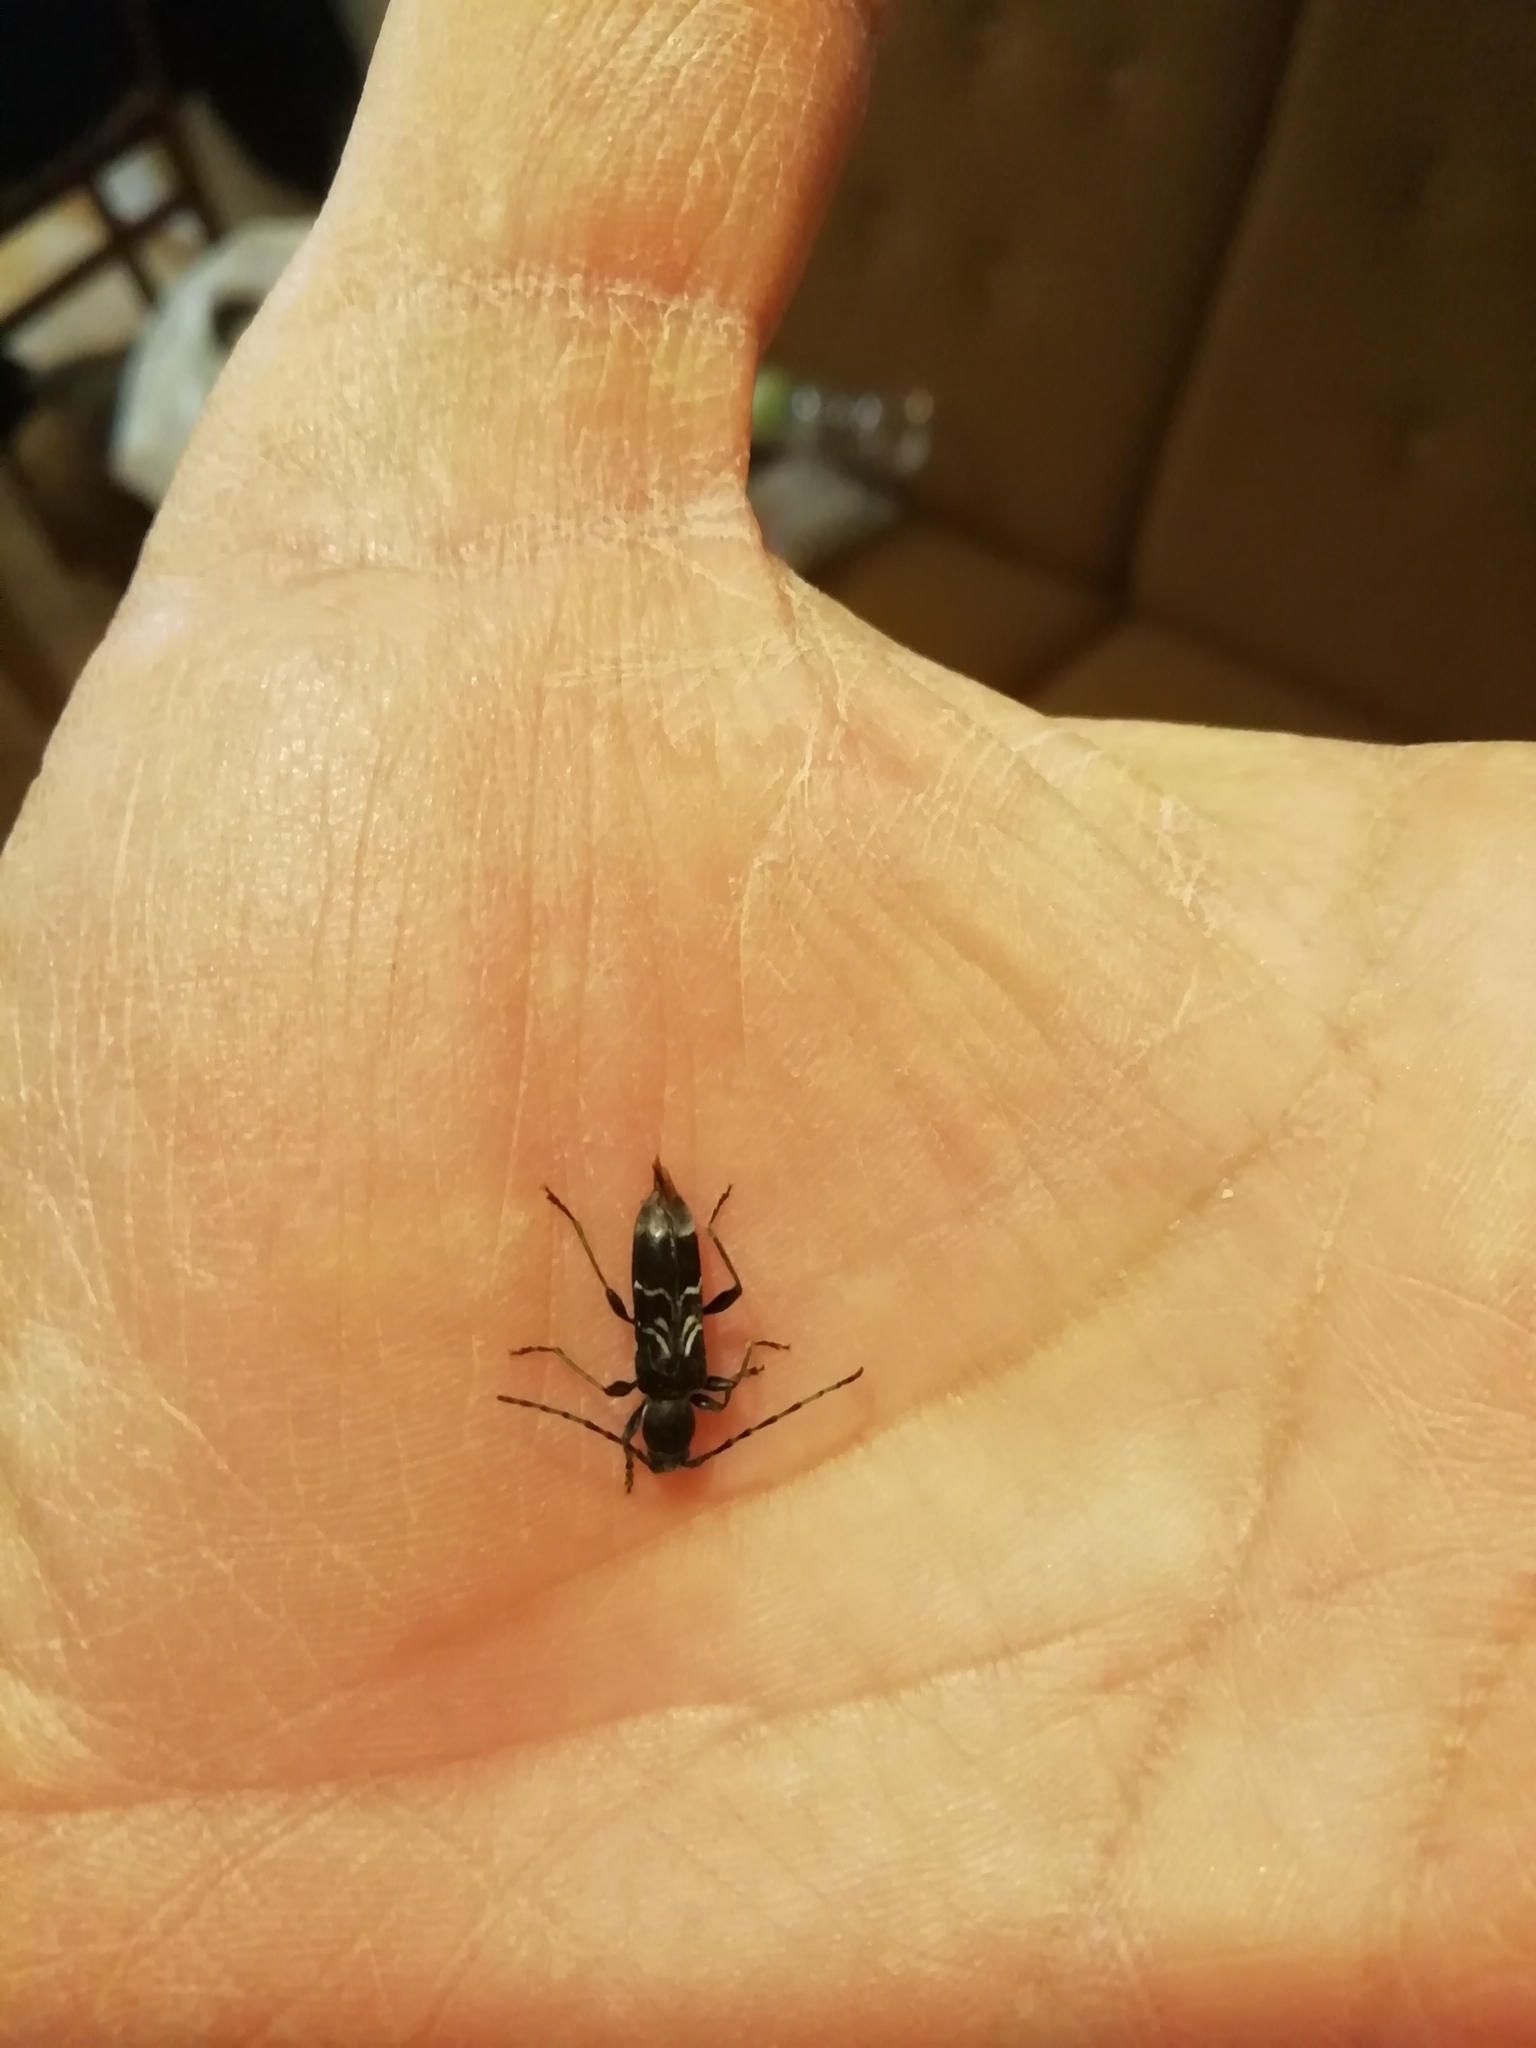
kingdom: Animalia
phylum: Arthropoda
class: Insecta
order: Coleoptera
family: Cerambycidae
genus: Anaglyptus
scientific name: Anaglyptus mysticus
